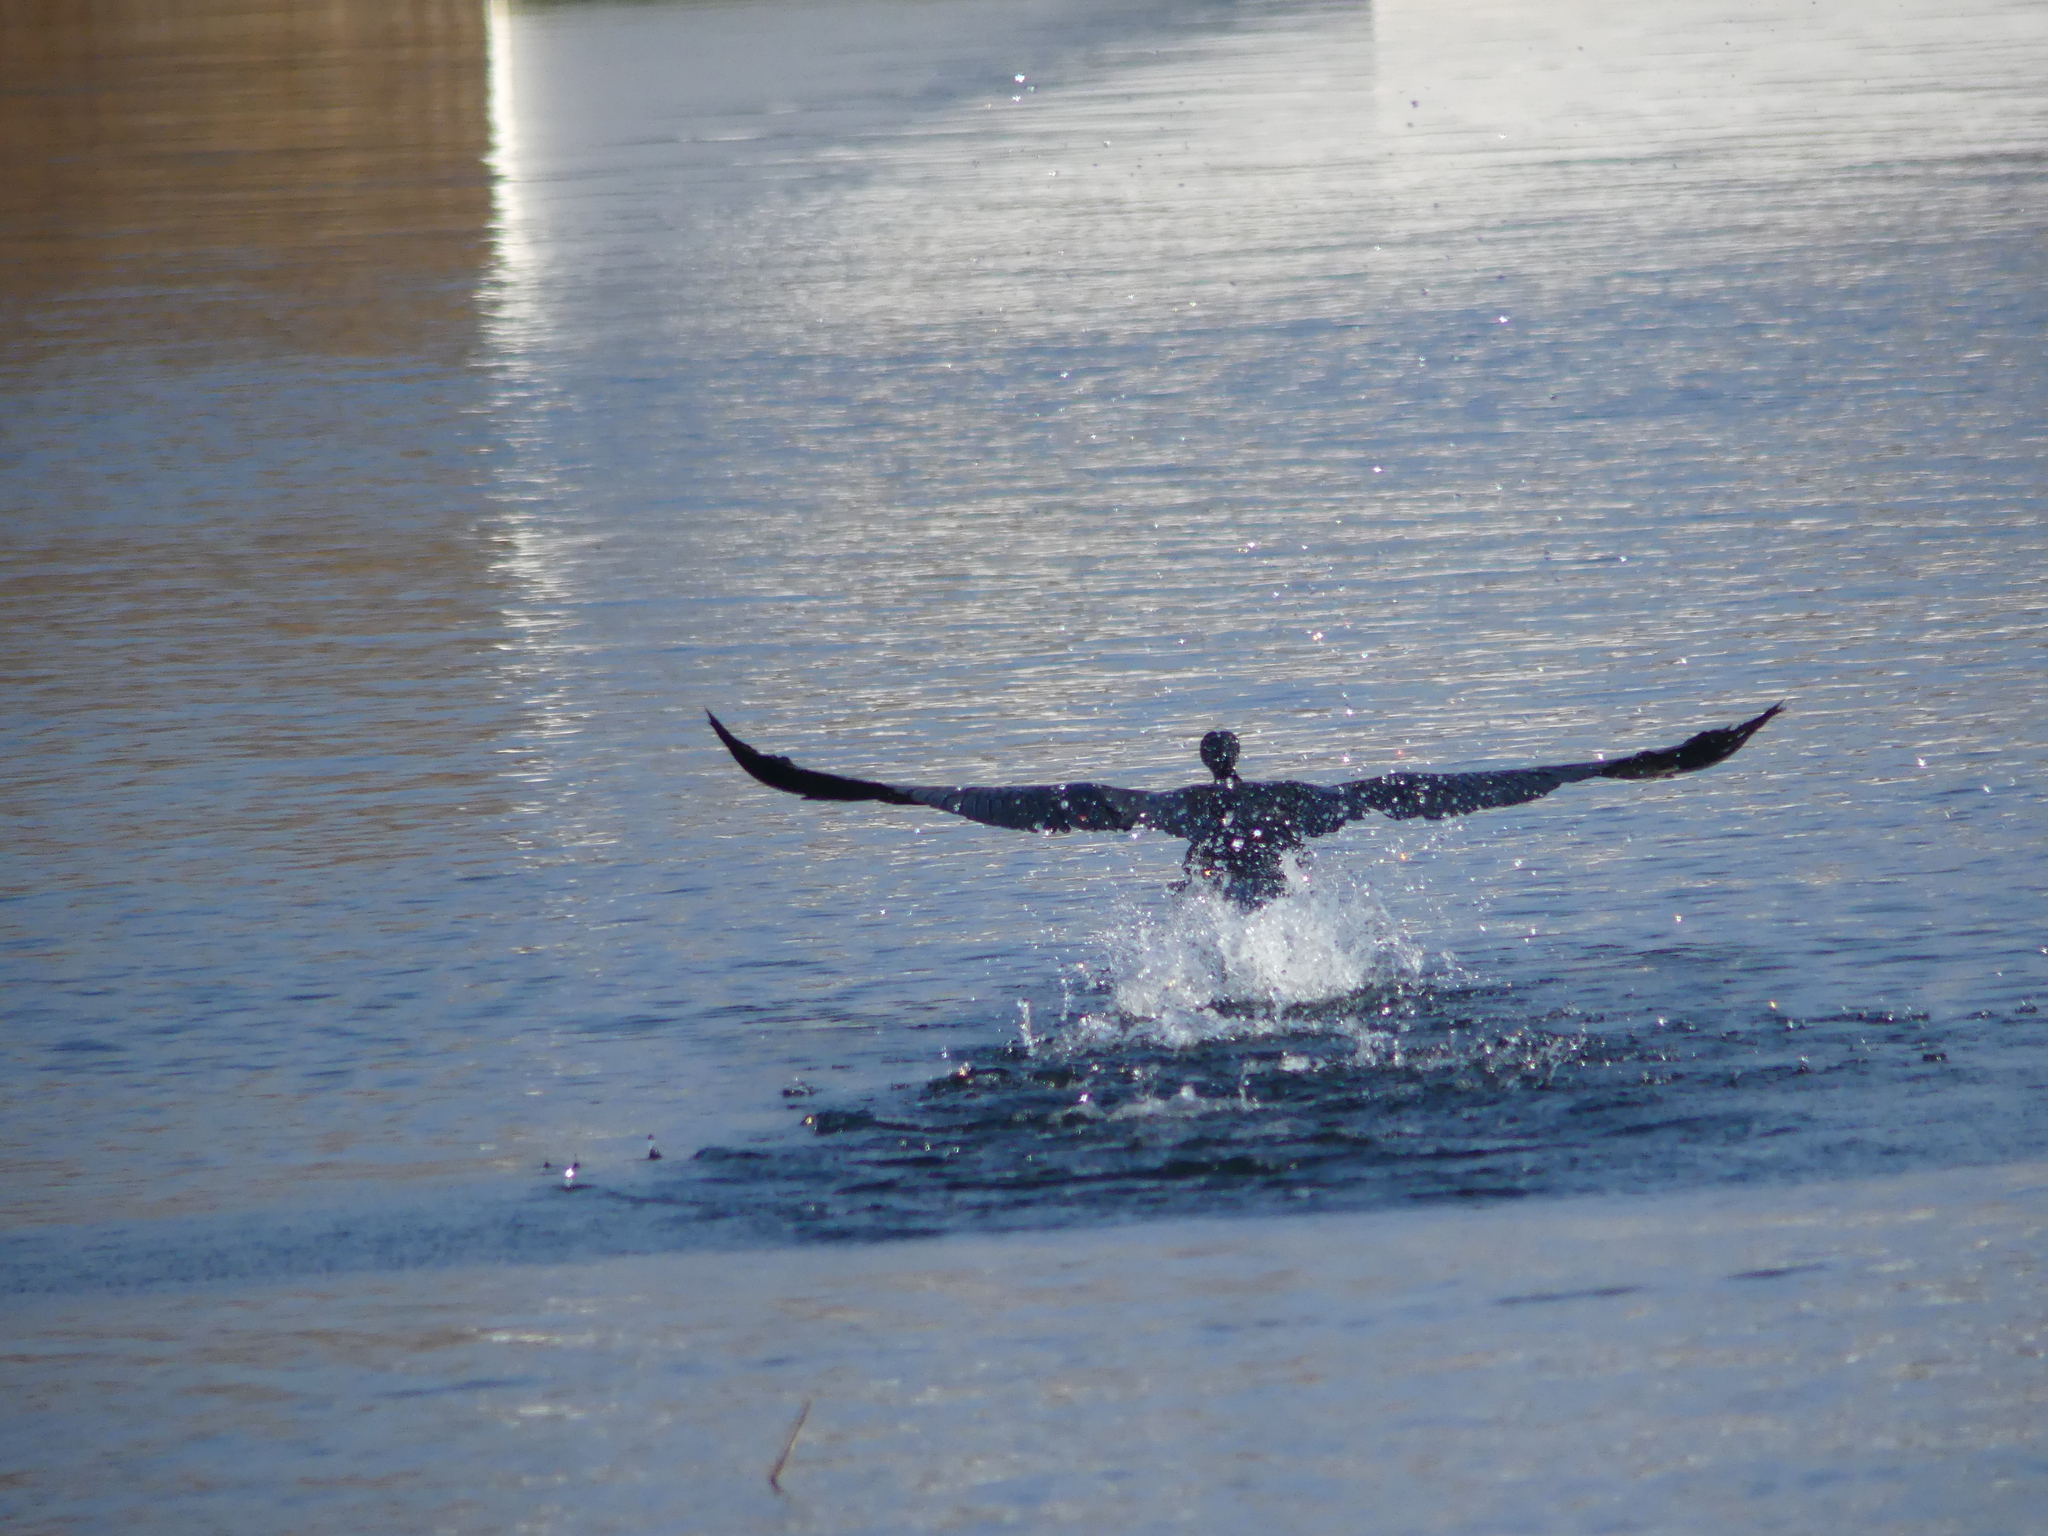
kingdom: Animalia
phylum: Chordata
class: Aves
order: Suliformes
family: Phalacrocoracidae
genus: Phalacrocorax
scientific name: Phalacrocorax carbo
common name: Great cormorant
